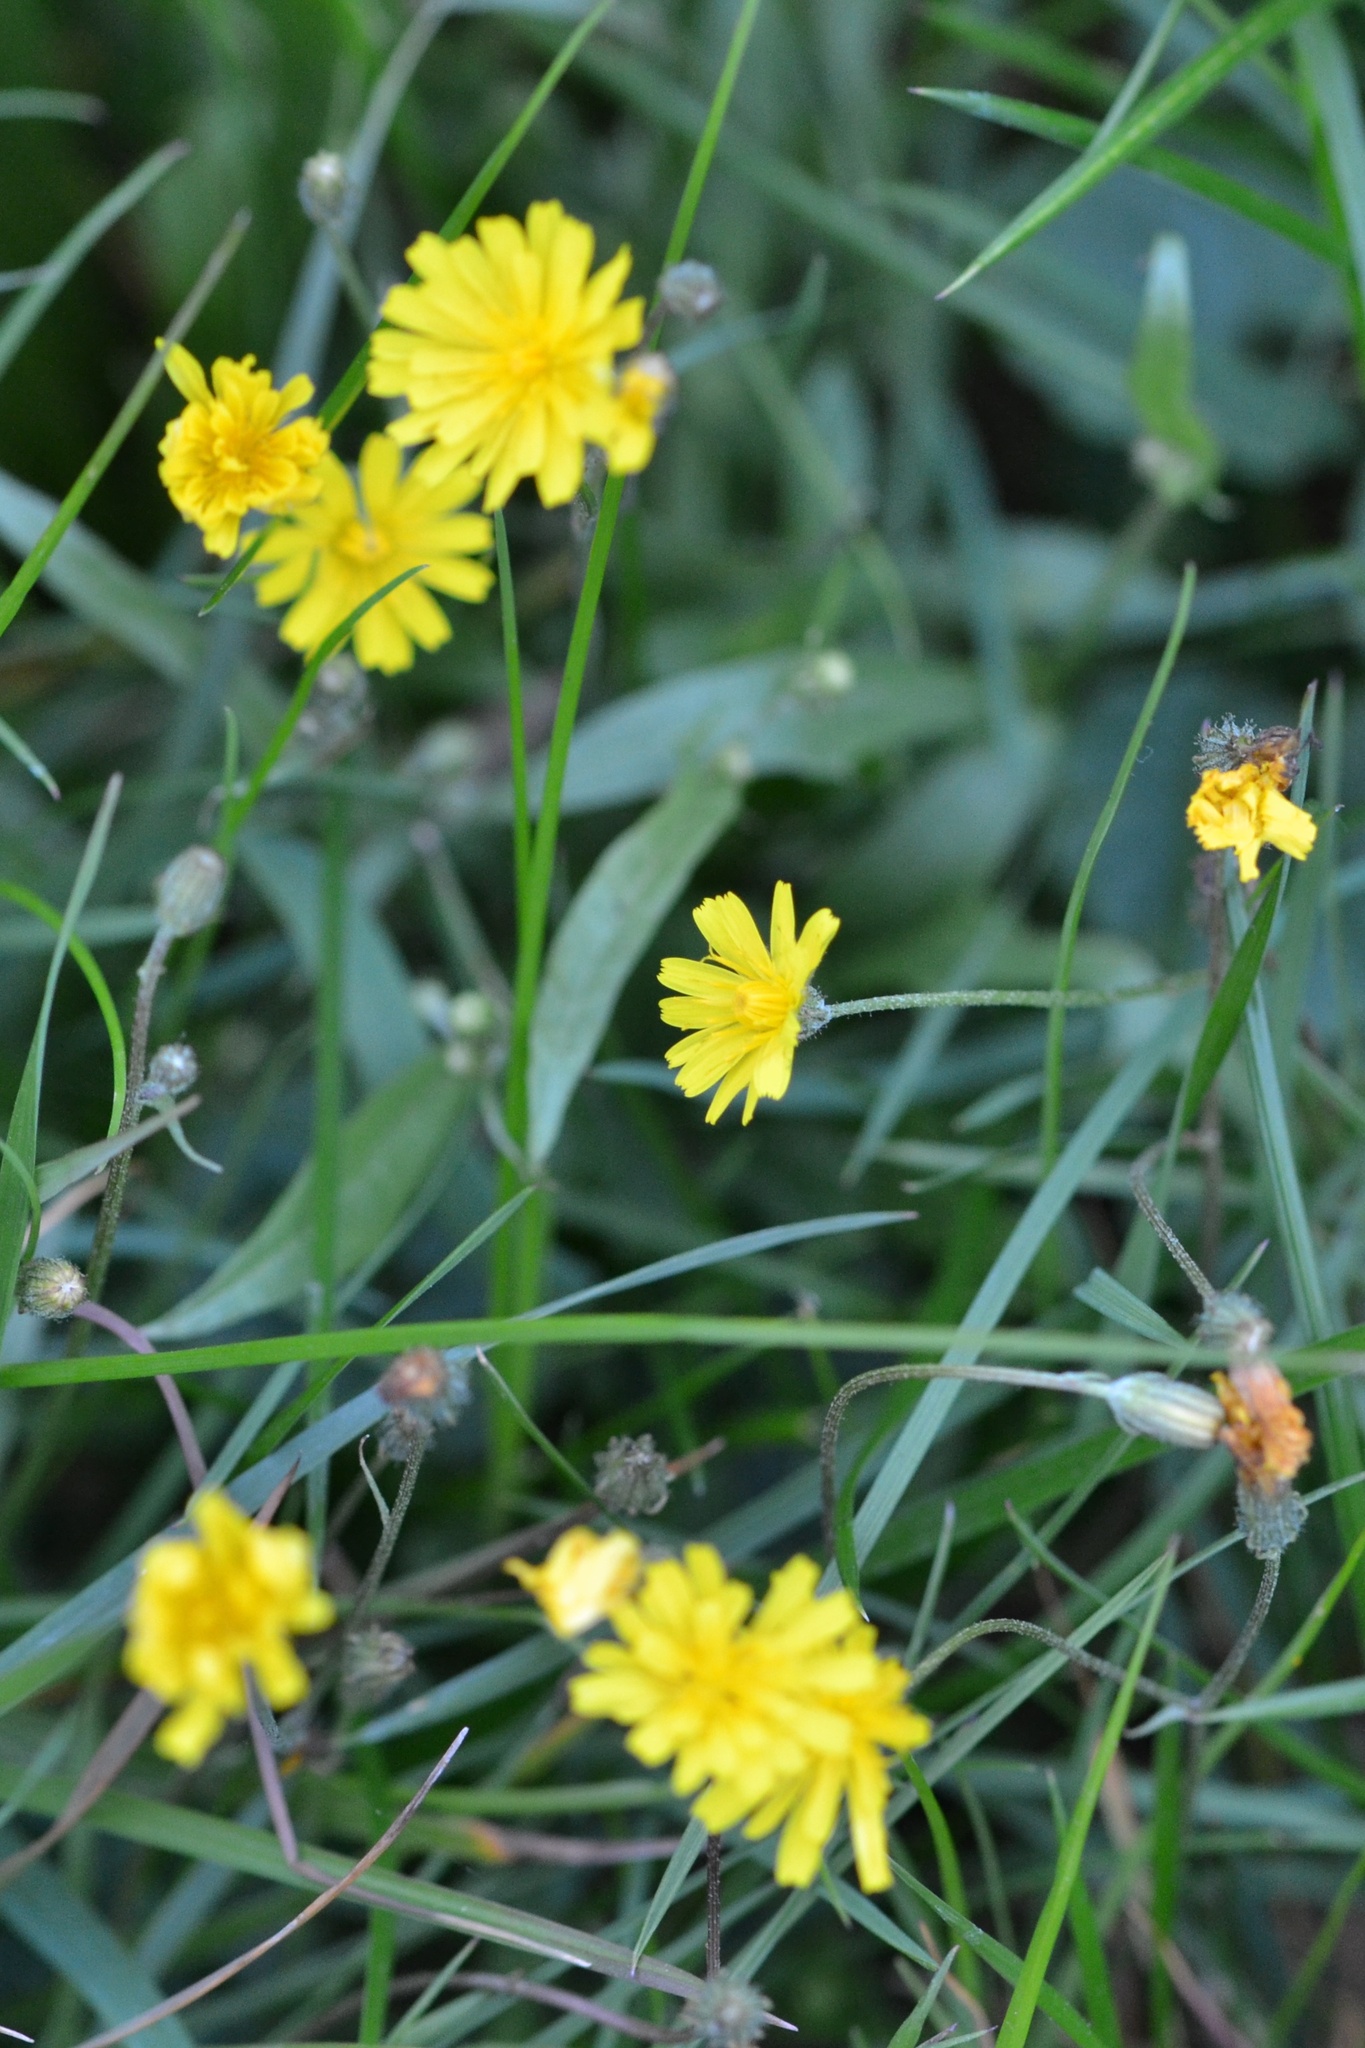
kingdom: Plantae
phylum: Tracheophyta
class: Magnoliopsida
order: Asterales
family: Asteraceae
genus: Crepis
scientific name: Crepis capillaris
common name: Smooth hawksbeard
